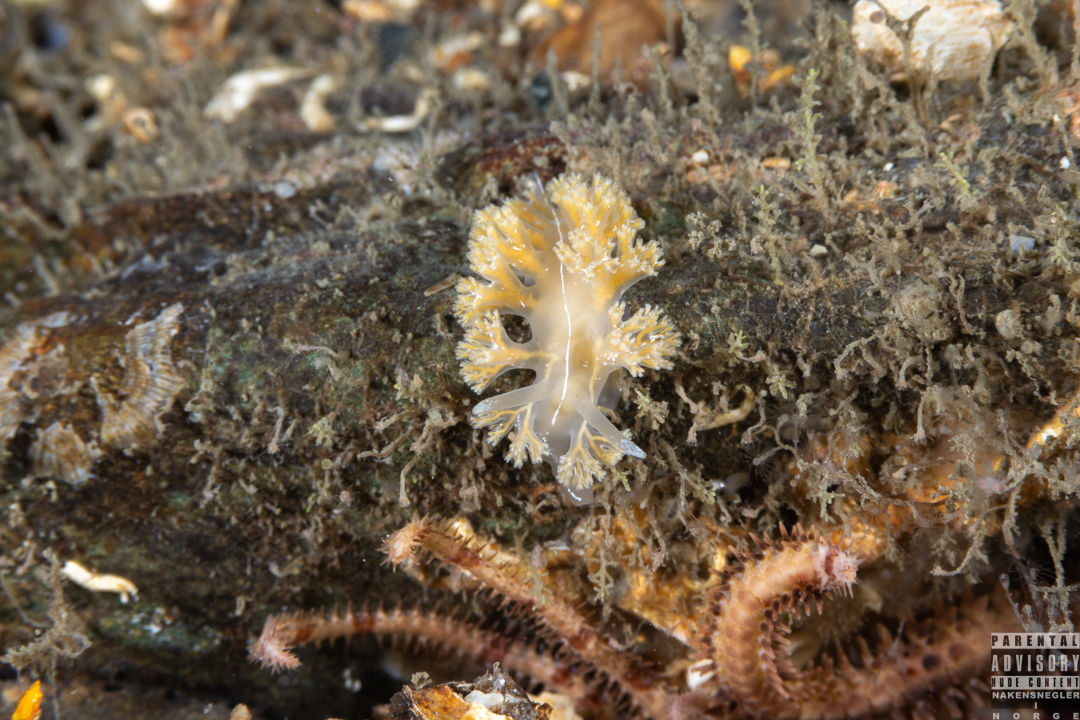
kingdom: Animalia
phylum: Mollusca
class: Gastropoda
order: Nudibranchia
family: Heroidae
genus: Hero
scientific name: Hero formosa
